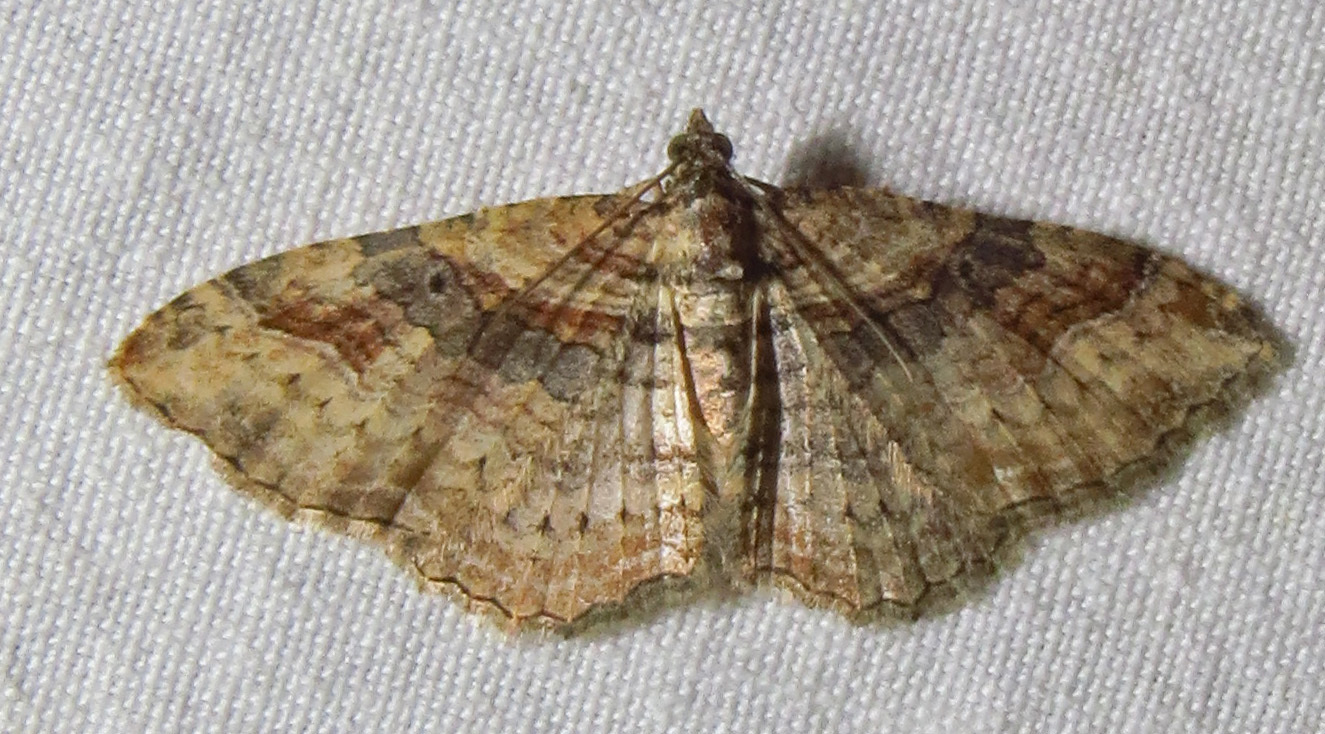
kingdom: Animalia
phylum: Arthropoda
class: Insecta
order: Lepidoptera
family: Geometridae
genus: Costaconvexa
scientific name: Costaconvexa centrostrigaria
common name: Bent-line carpet
